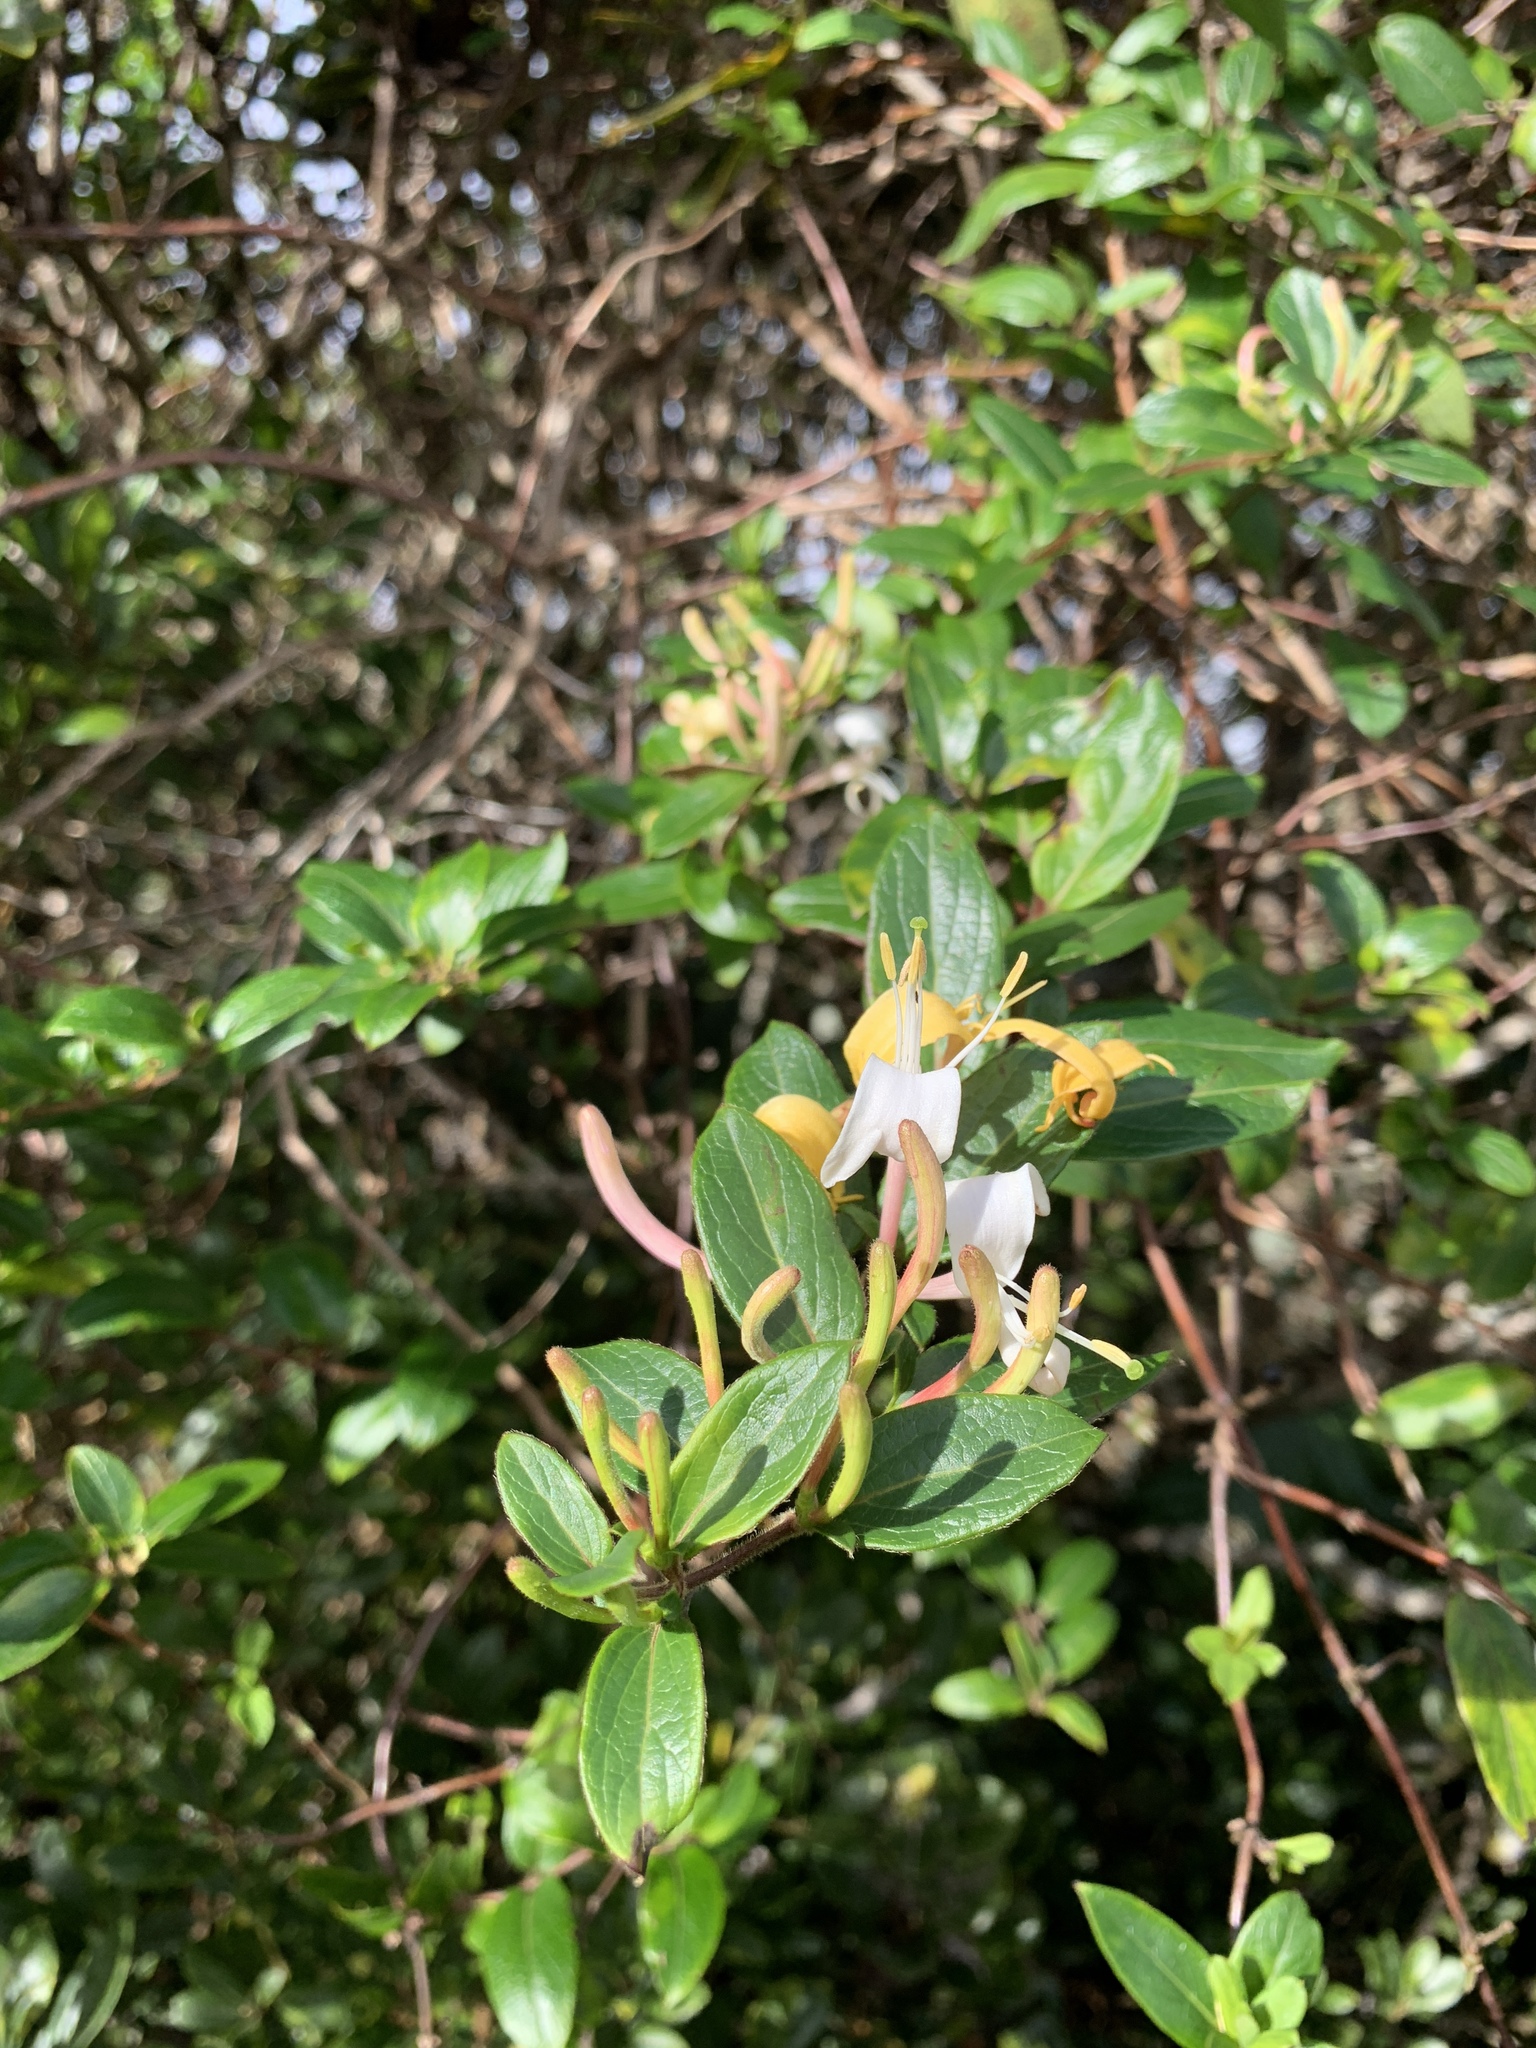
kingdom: Plantae
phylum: Tracheophyta
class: Magnoliopsida
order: Dipsacales
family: Caprifoliaceae
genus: Lonicera
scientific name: Lonicera japonica
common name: Japanese honeysuckle
